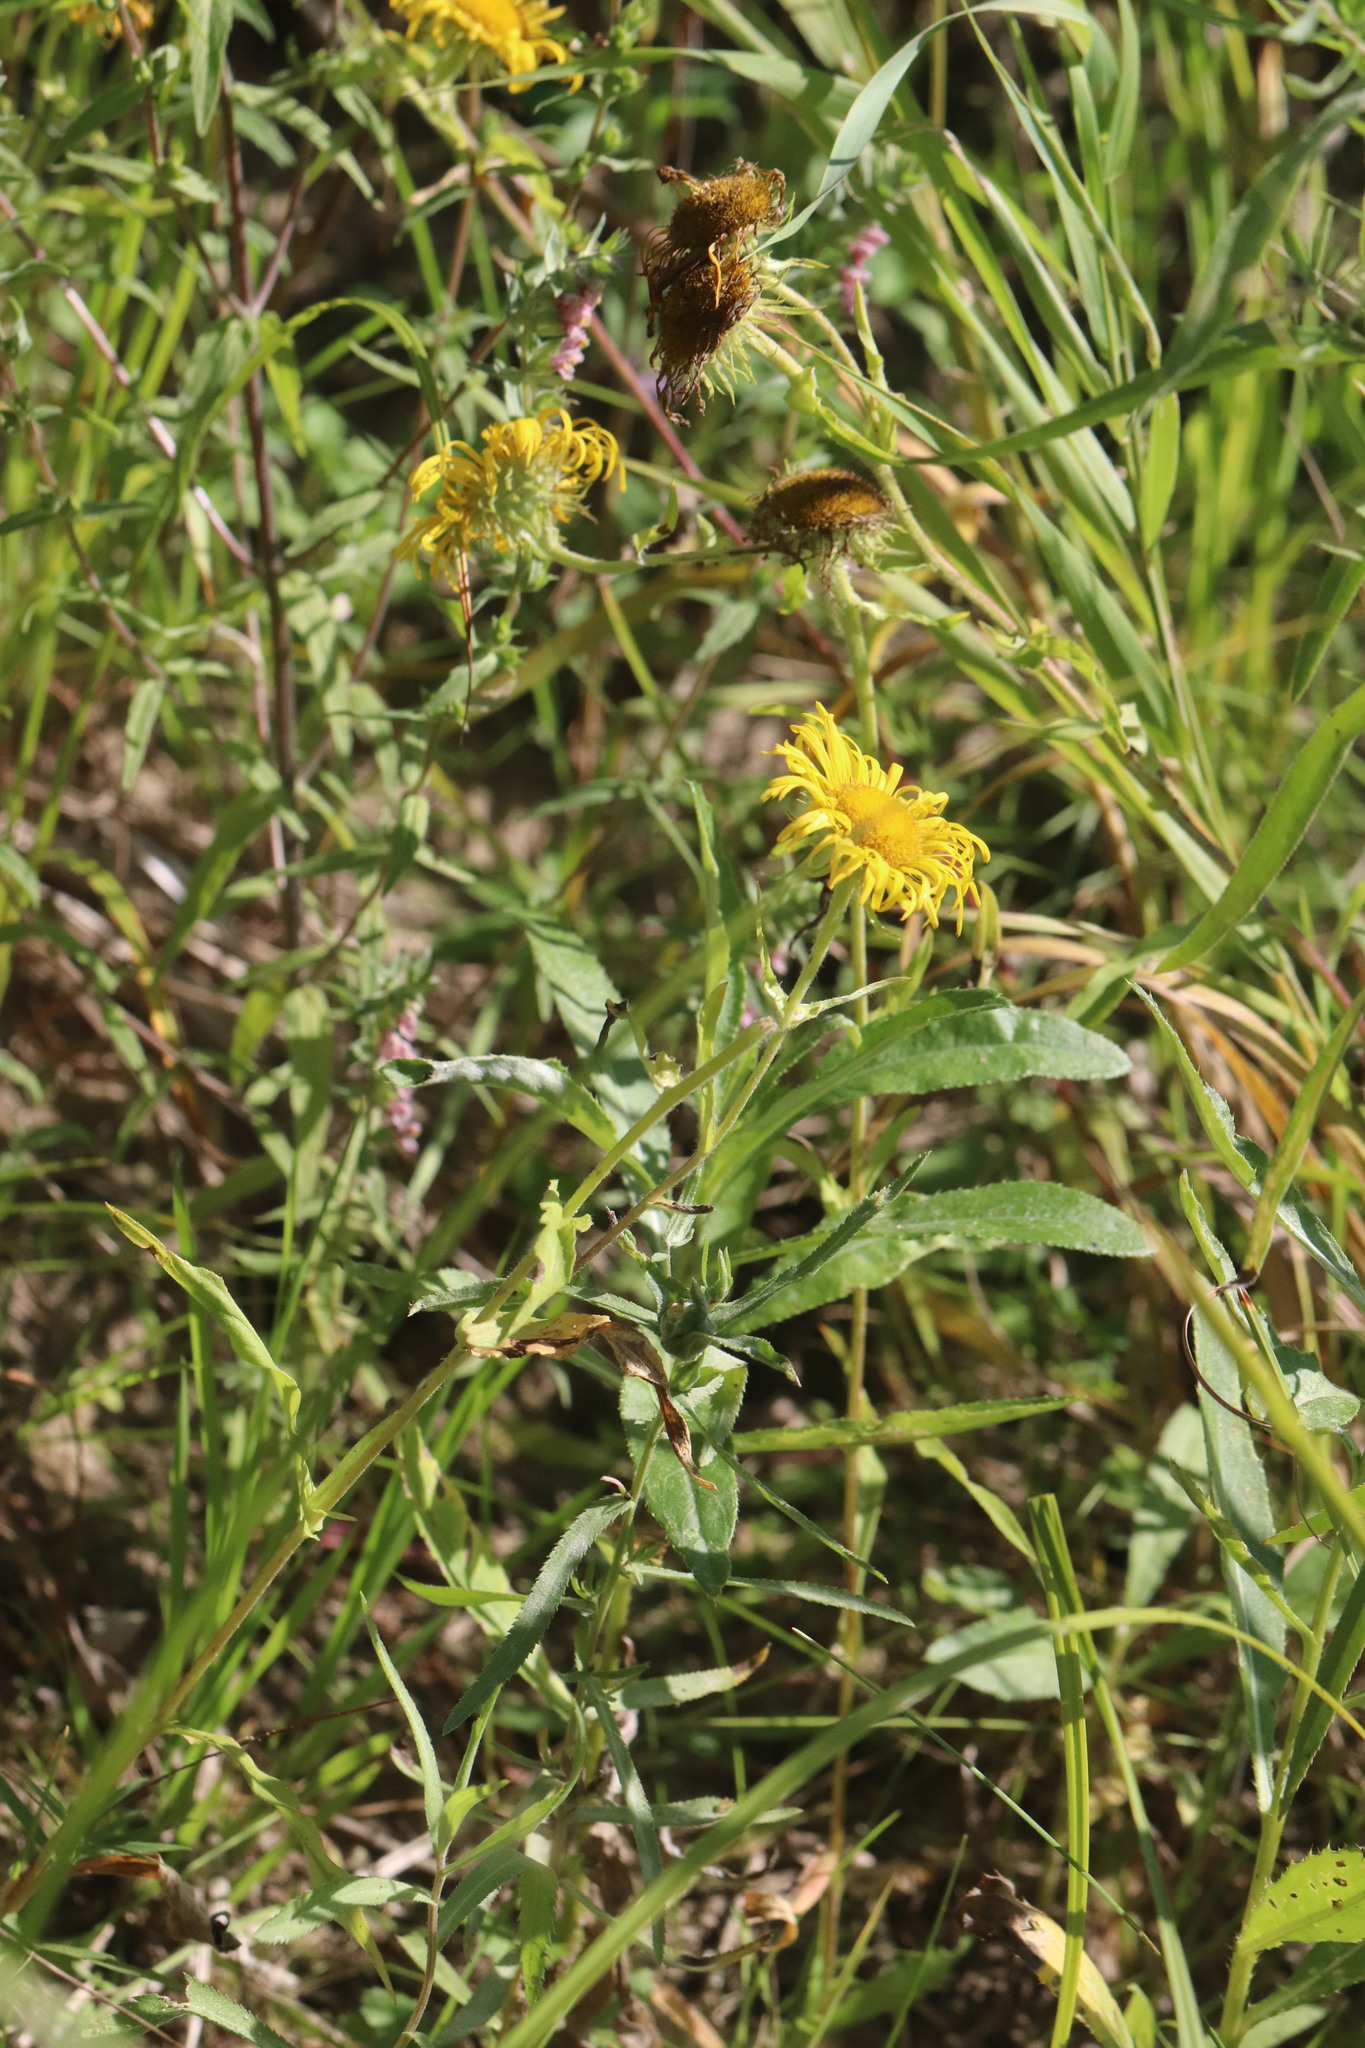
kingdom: Plantae
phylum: Tracheophyta
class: Magnoliopsida
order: Asterales
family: Asteraceae
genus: Pentanema
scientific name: Pentanema britannicum
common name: British elecampane
